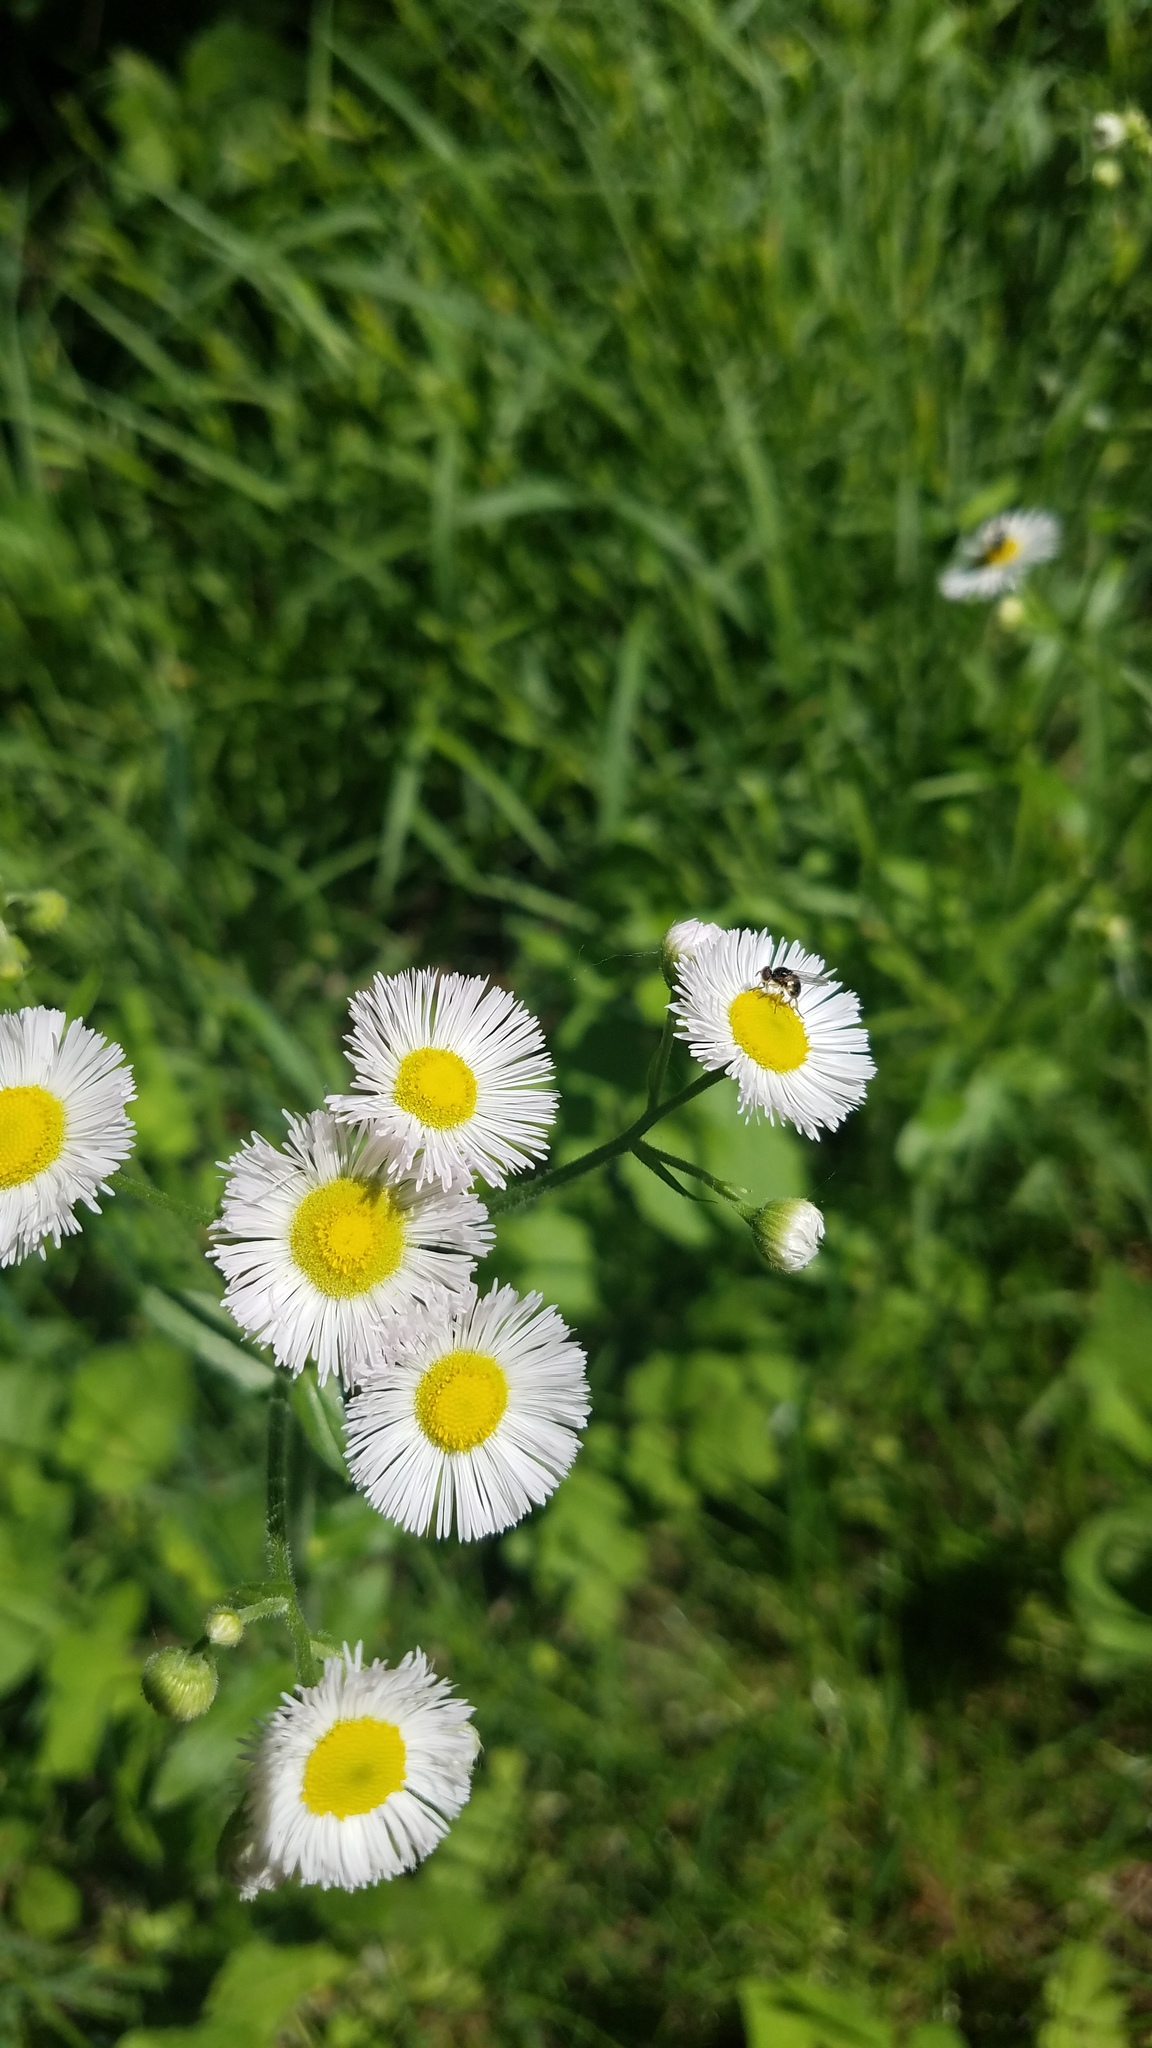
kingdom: Plantae
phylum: Tracheophyta
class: Magnoliopsida
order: Asterales
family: Asteraceae
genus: Erigeron
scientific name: Erigeron philadelphicus
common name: Robin's-plantain
